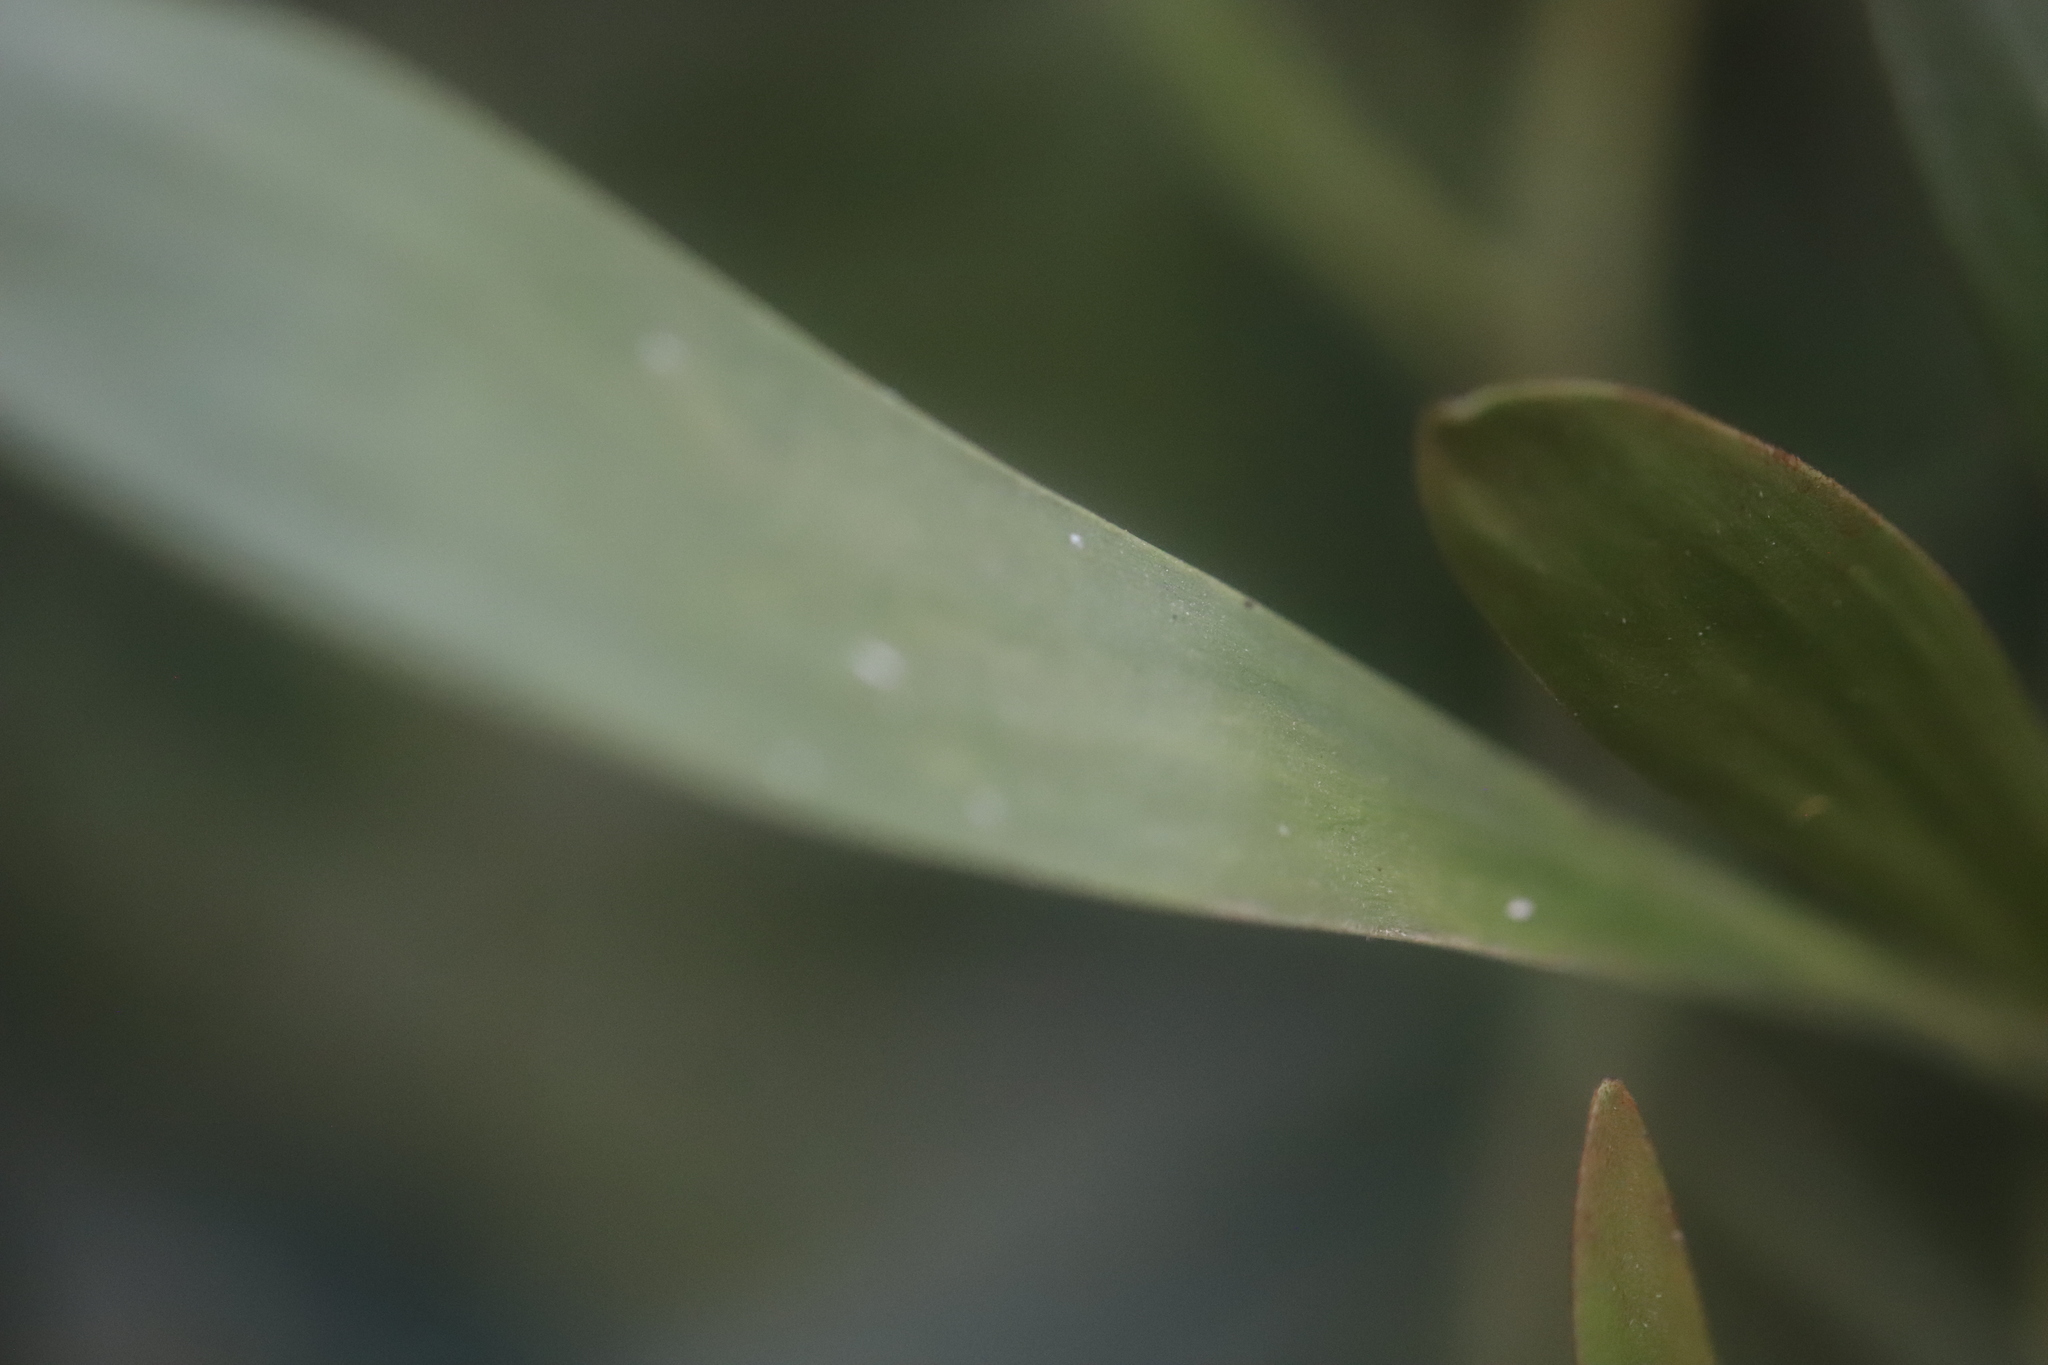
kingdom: Plantae
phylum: Tracheophyta
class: Magnoliopsida
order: Fabales
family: Fabaceae
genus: Acacia
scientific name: Acacia melanoxylon
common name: Blackwood
